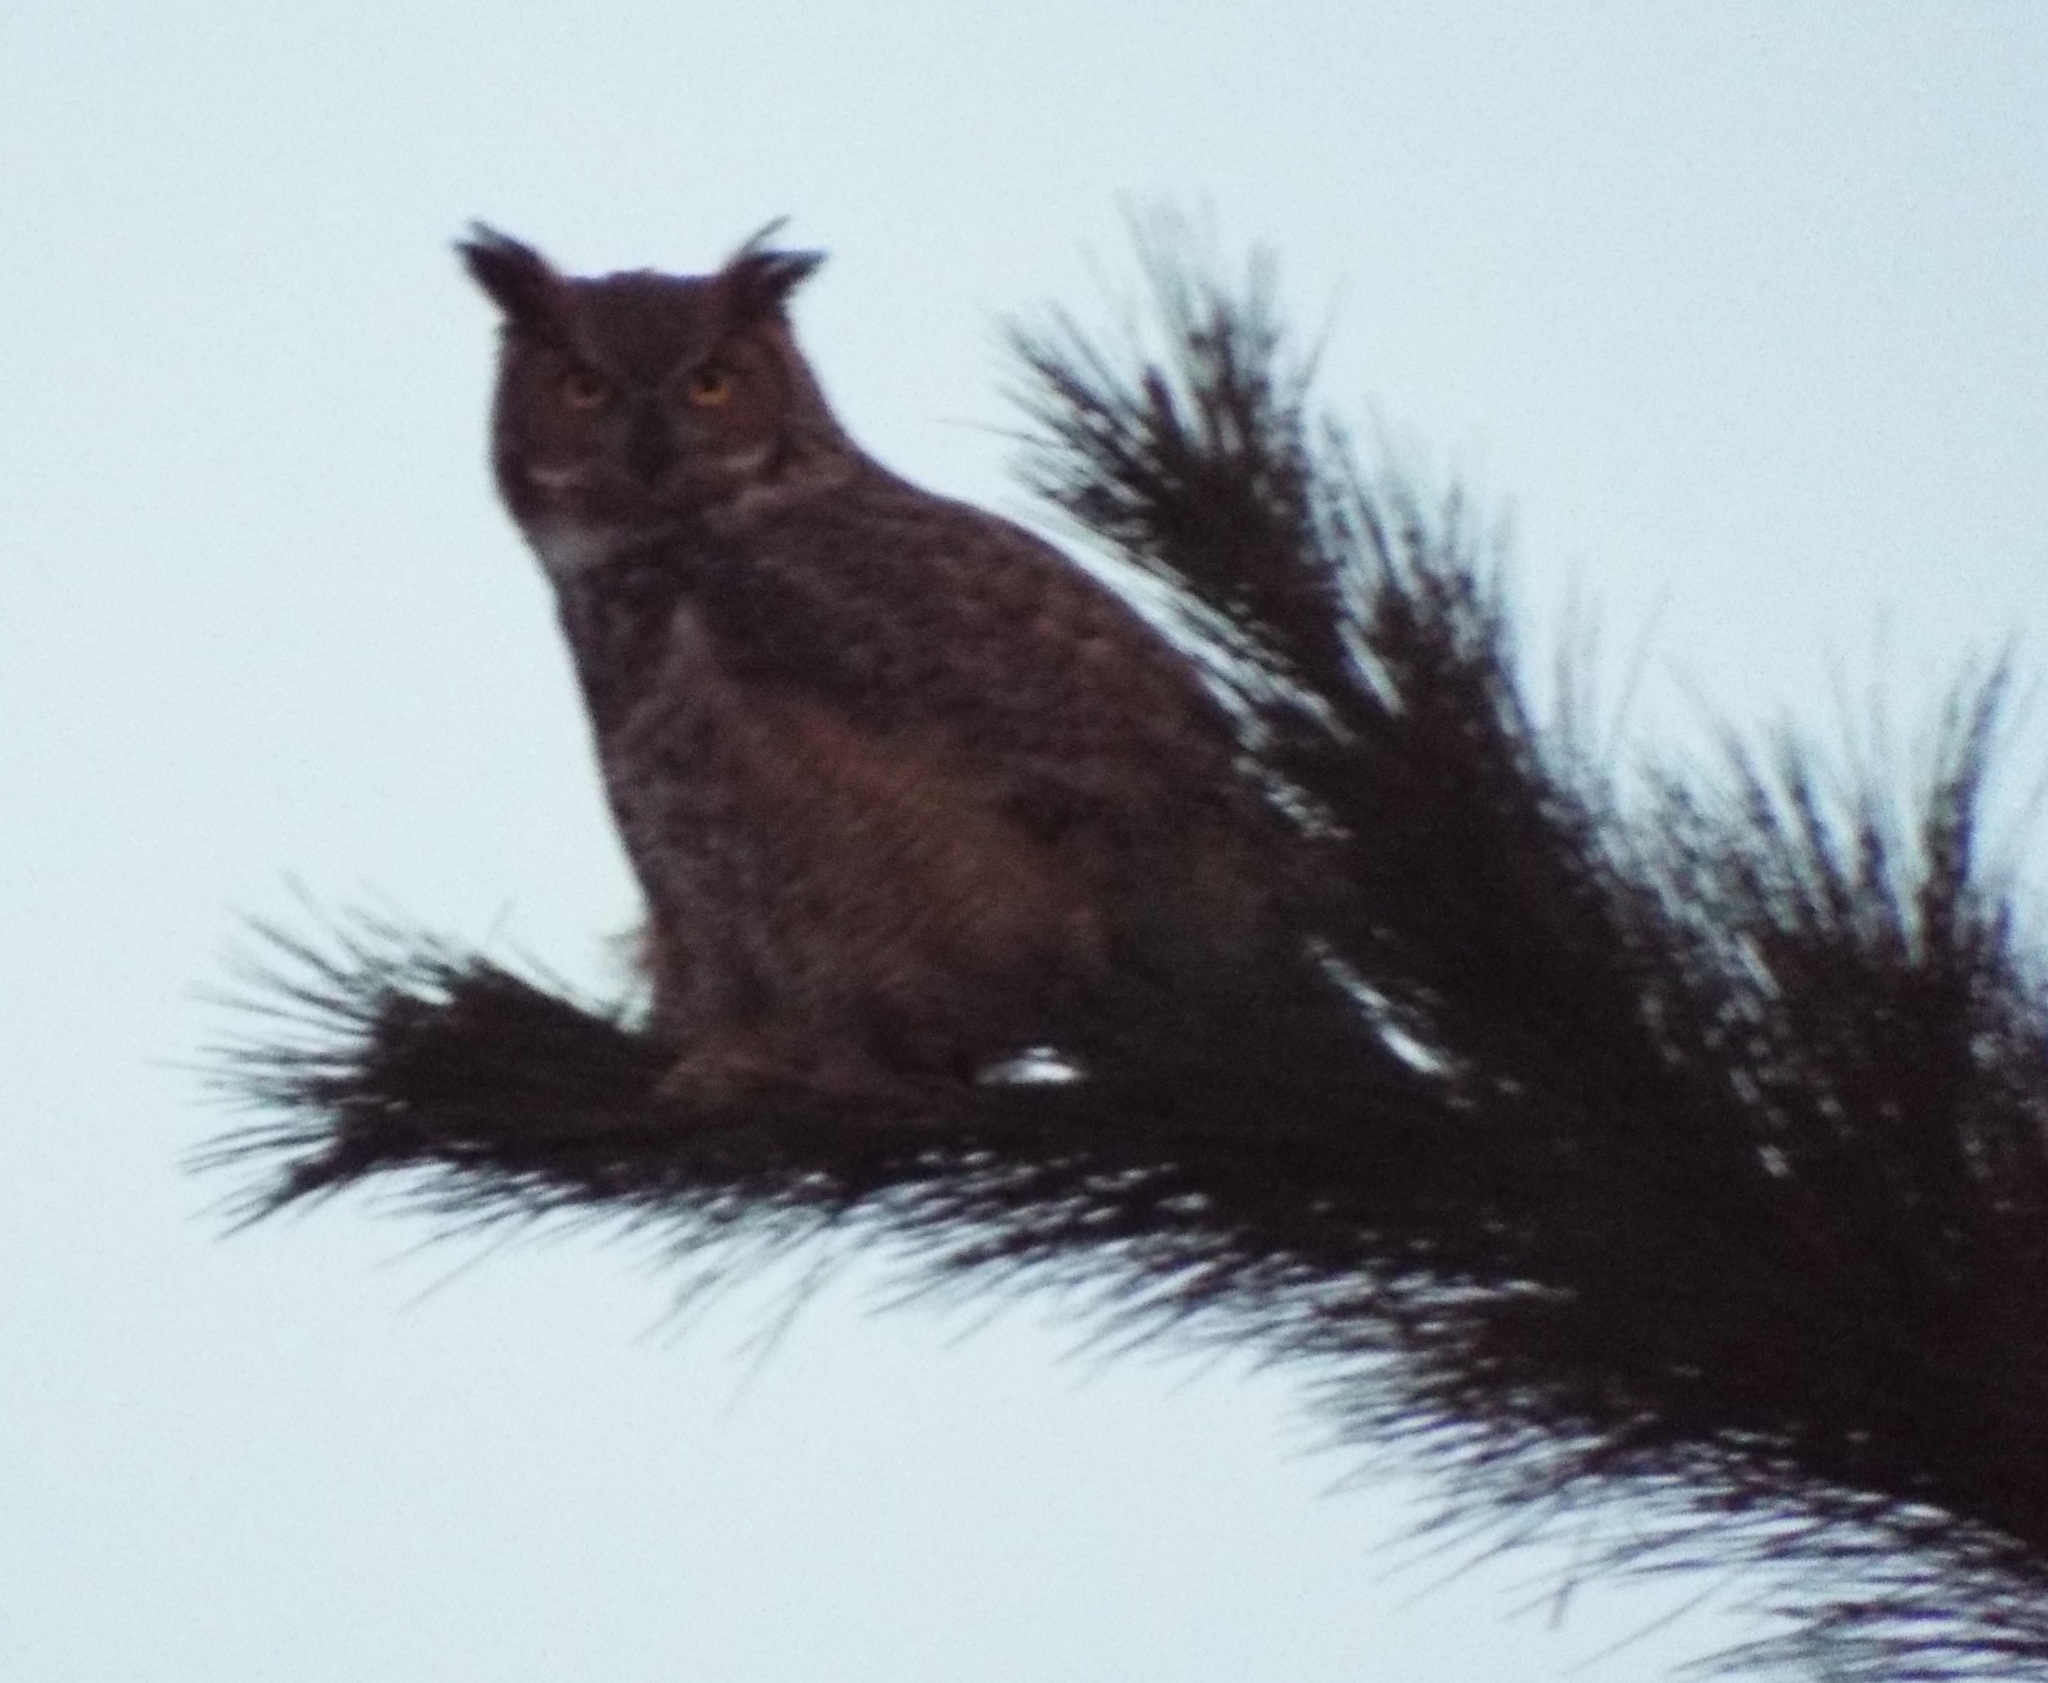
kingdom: Animalia
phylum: Chordata
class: Aves
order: Strigiformes
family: Strigidae
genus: Bubo
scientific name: Bubo virginianus
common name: Great horned owl
